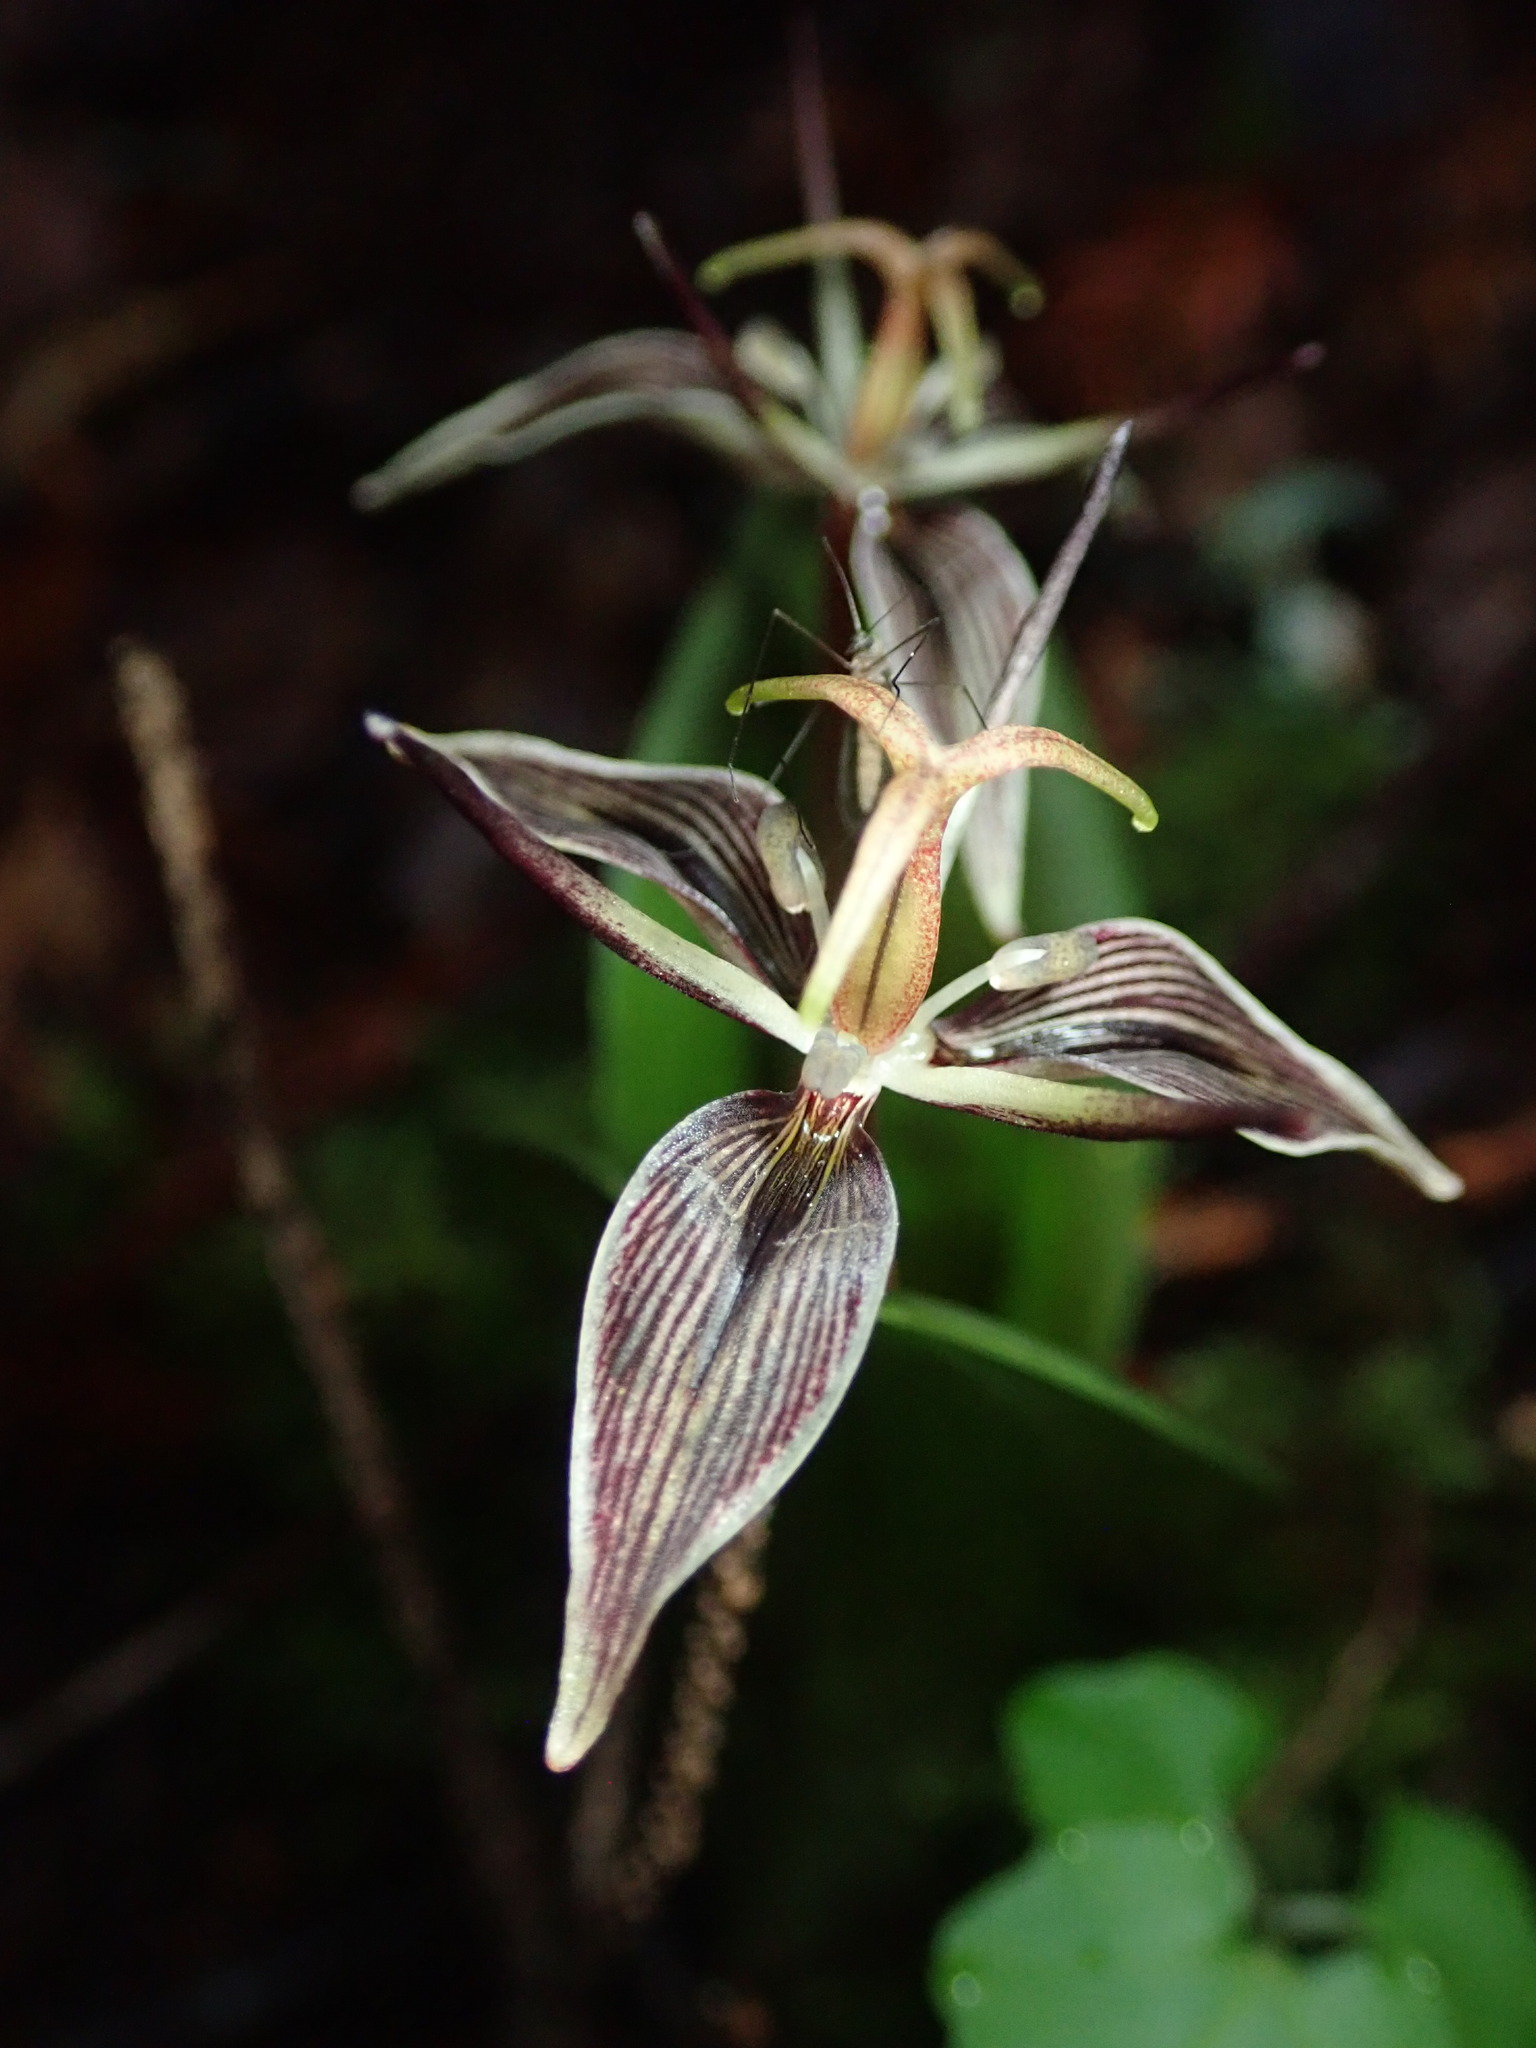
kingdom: Plantae
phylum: Tracheophyta
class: Liliopsida
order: Liliales
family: Liliaceae
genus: Scoliopus
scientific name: Scoliopus bigelovii
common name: Foetid adder's-tongue
